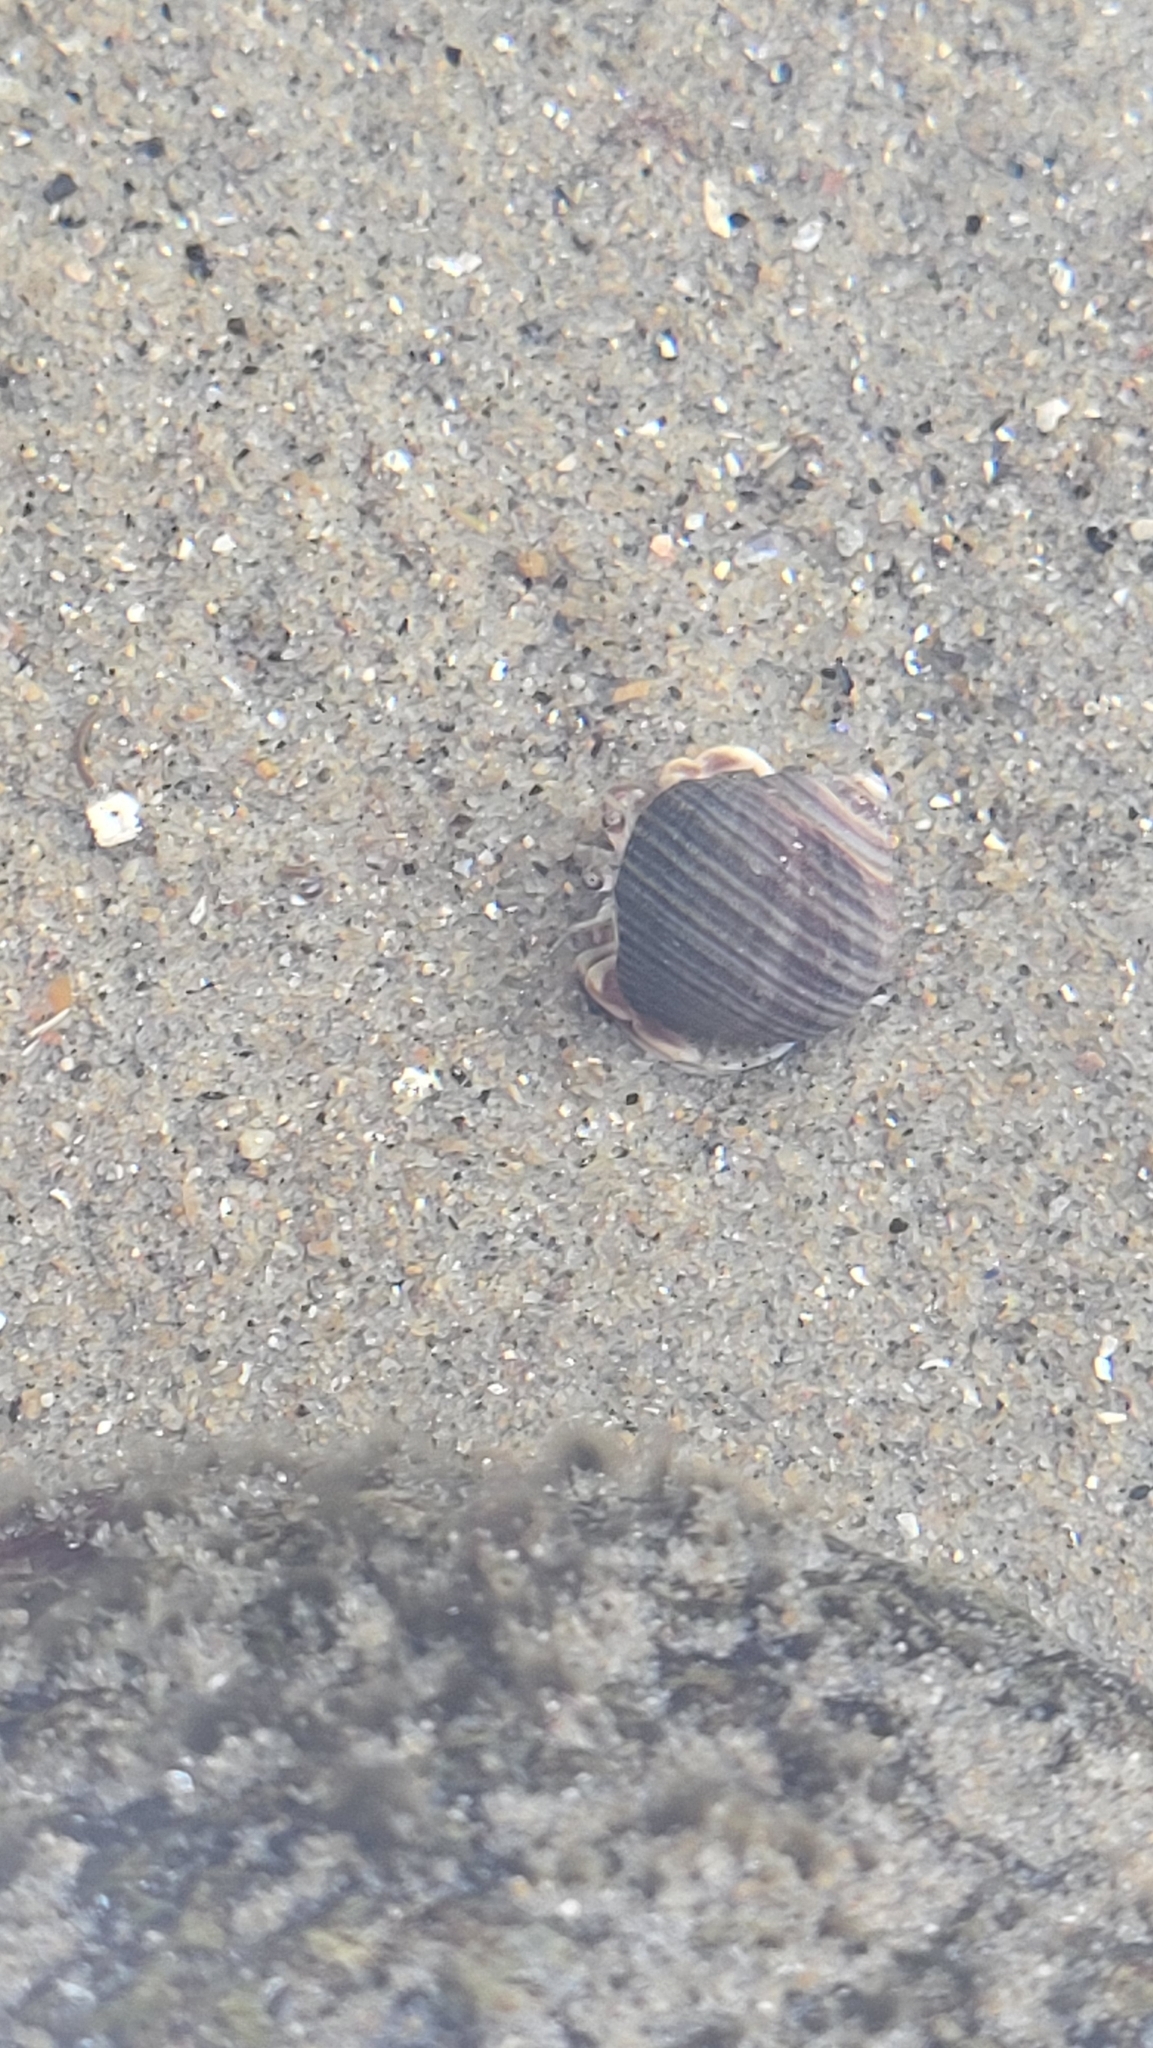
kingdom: Animalia
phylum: Arthropoda
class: Malacostraca
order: Decapoda
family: Paguridae
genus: Pagurus
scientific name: Pagurus longicarpus
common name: Long-armed hermit crab
